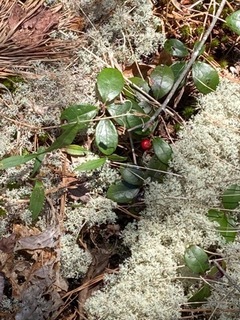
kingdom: Plantae
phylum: Tracheophyta
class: Magnoliopsida
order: Ericales
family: Ericaceae
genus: Gaultheria
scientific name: Gaultheria procumbens
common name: Checkerberry
